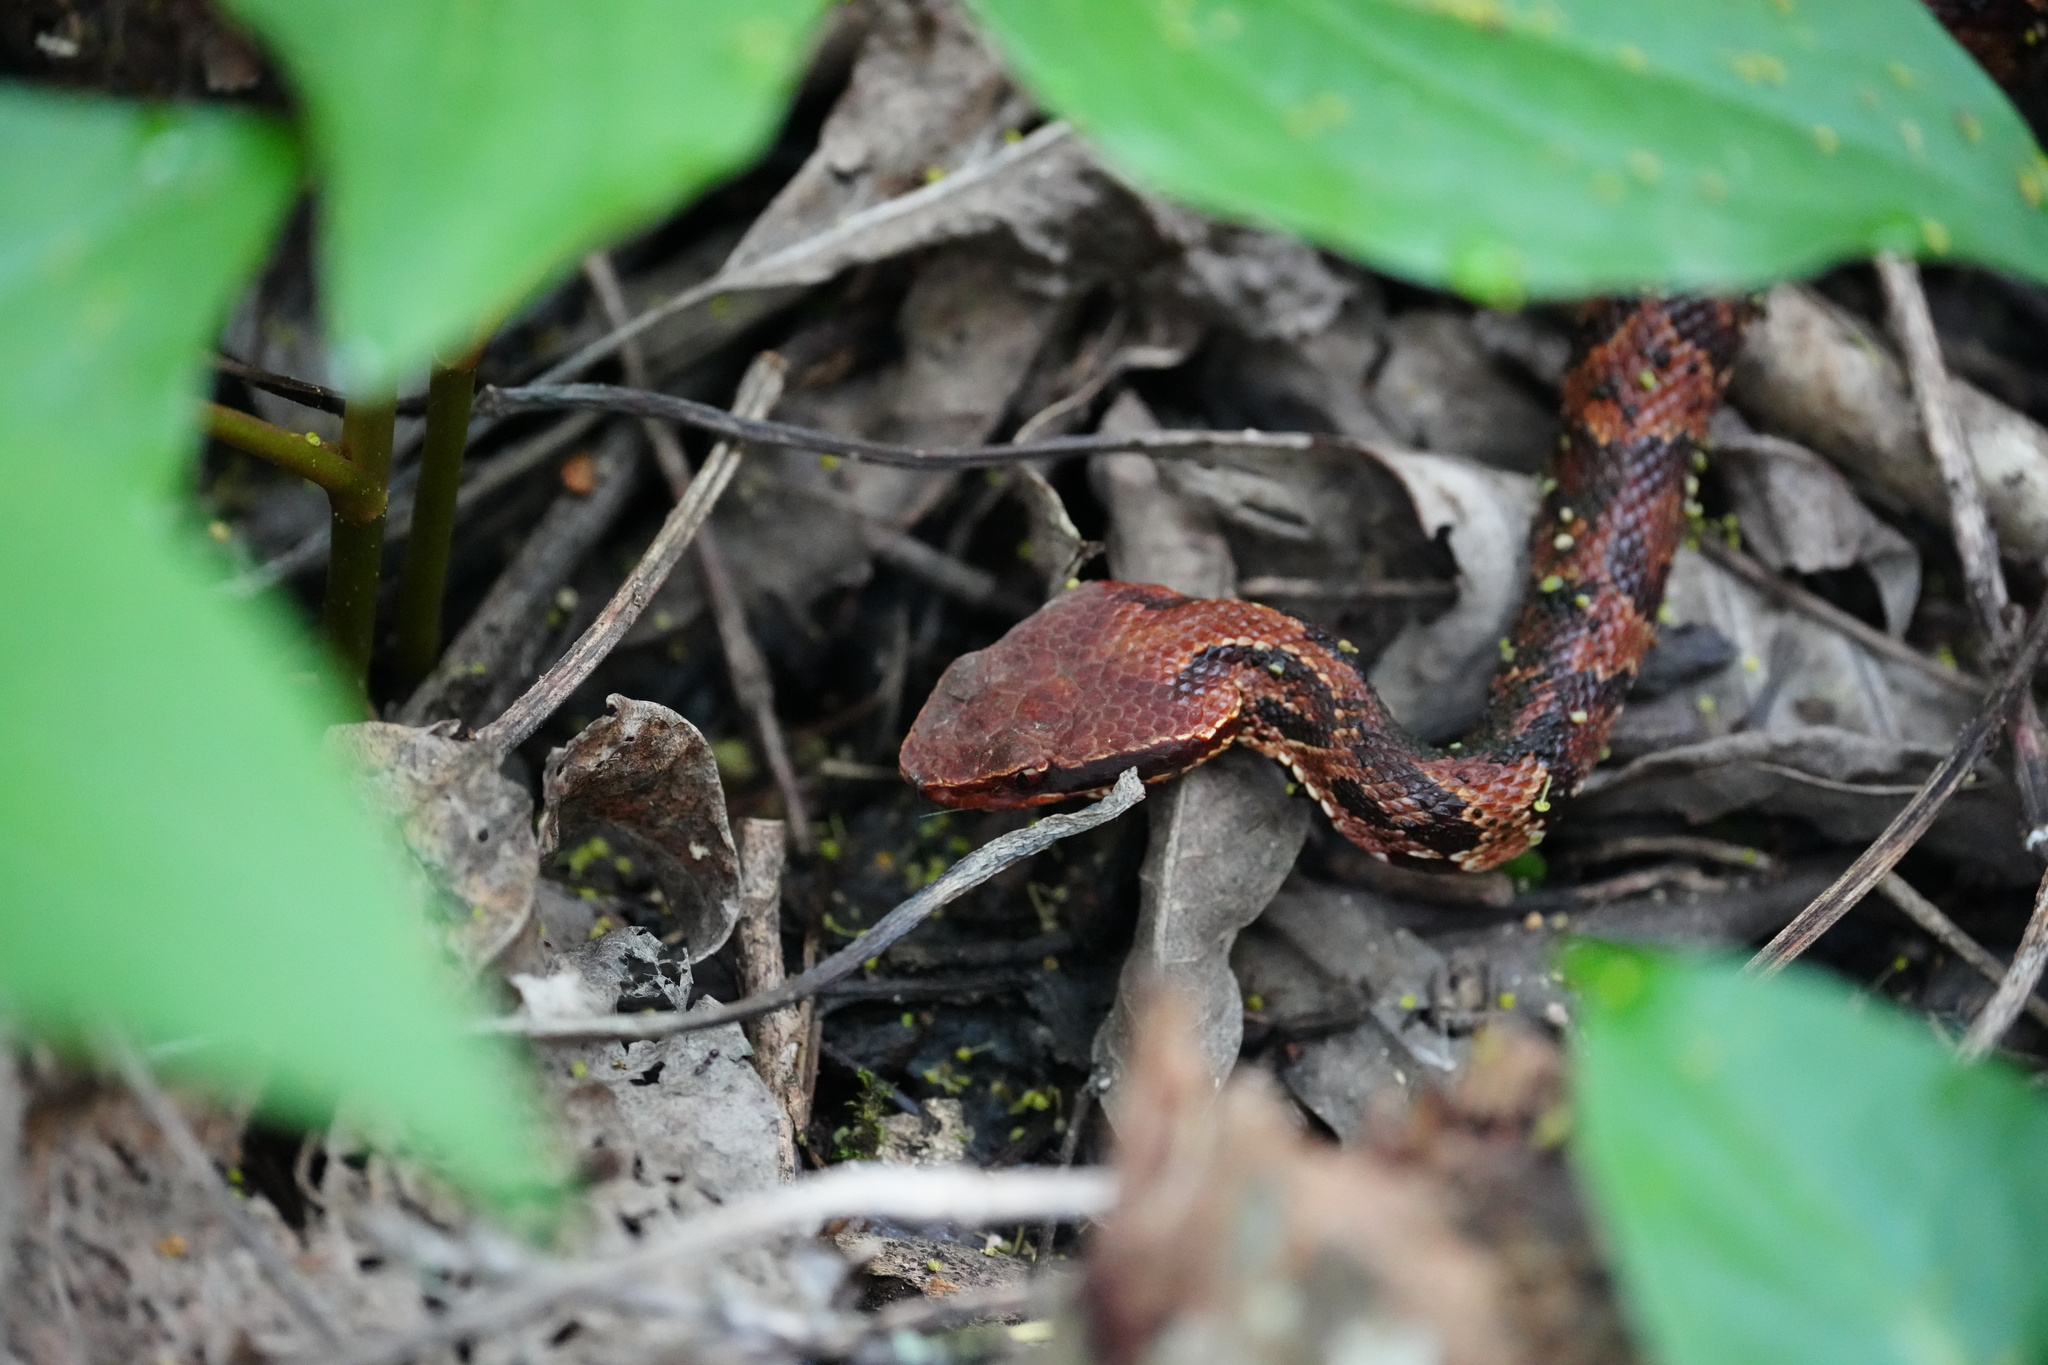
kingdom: Animalia
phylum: Chordata
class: Squamata
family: Viperidae
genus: Agkistrodon
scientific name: Agkistrodon piscivorus
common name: Cottonmouth
